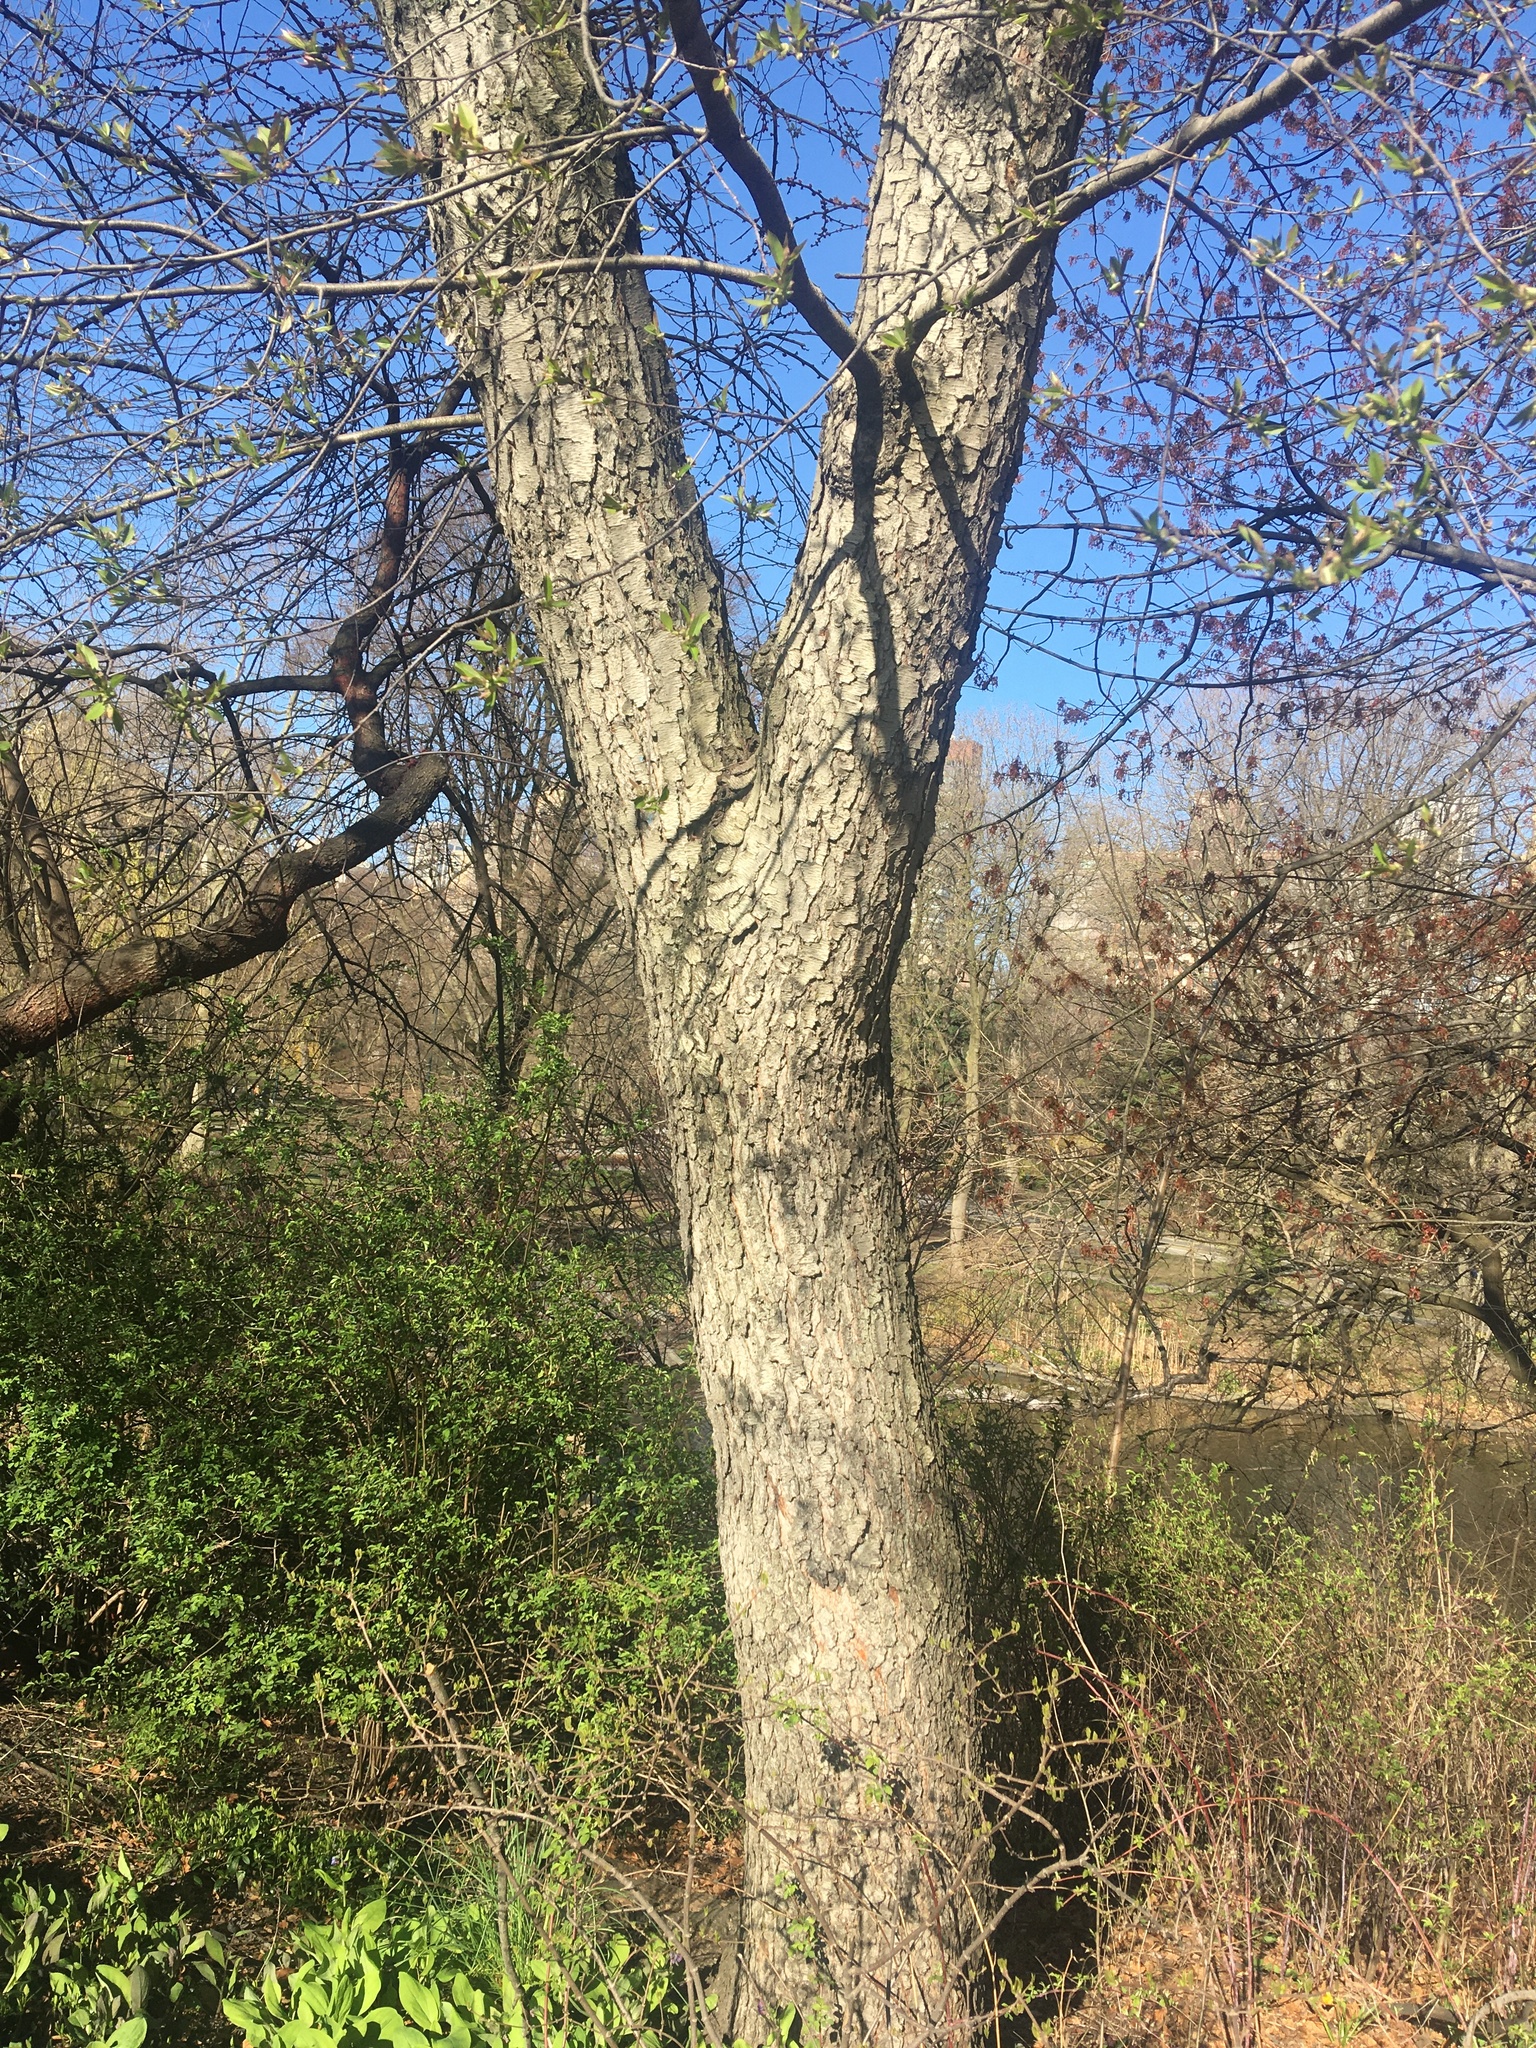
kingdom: Plantae
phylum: Tracheophyta
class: Magnoliopsida
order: Rosales
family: Rosaceae
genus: Prunus
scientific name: Prunus serotina
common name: Black cherry
